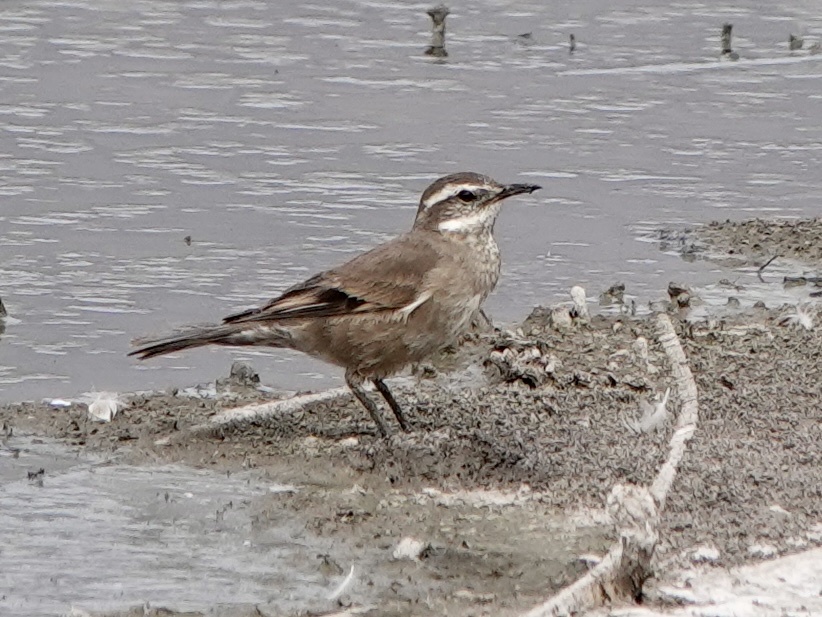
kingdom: Animalia
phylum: Chordata
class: Aves
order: Passeriformes
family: Furnariidae
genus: Cinclodes
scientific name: Cinclodes fuscus
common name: Buff-winged cinclodes
